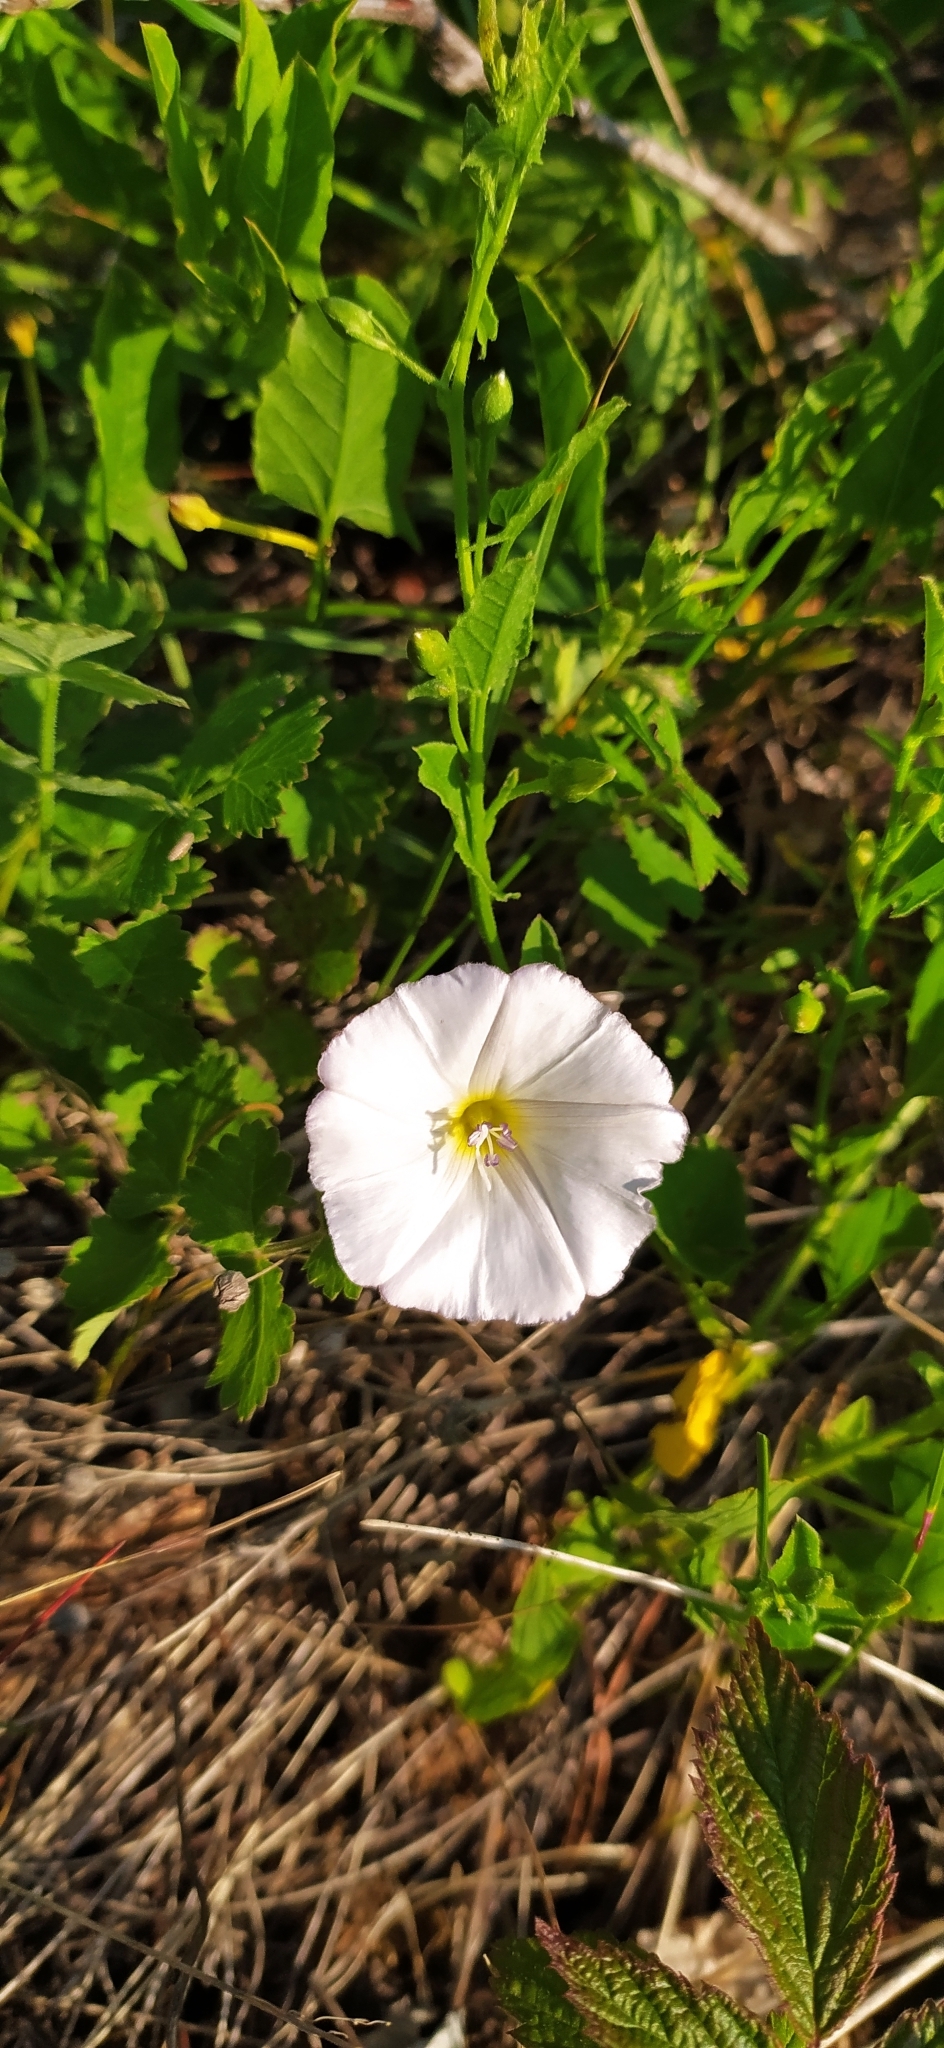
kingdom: Plantae
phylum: Tracheophyta
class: Magnoliopsida
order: Solanales
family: Convolvulaceae
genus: Convolvulus
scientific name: Convolvulus arvensis
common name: Field bindweed
